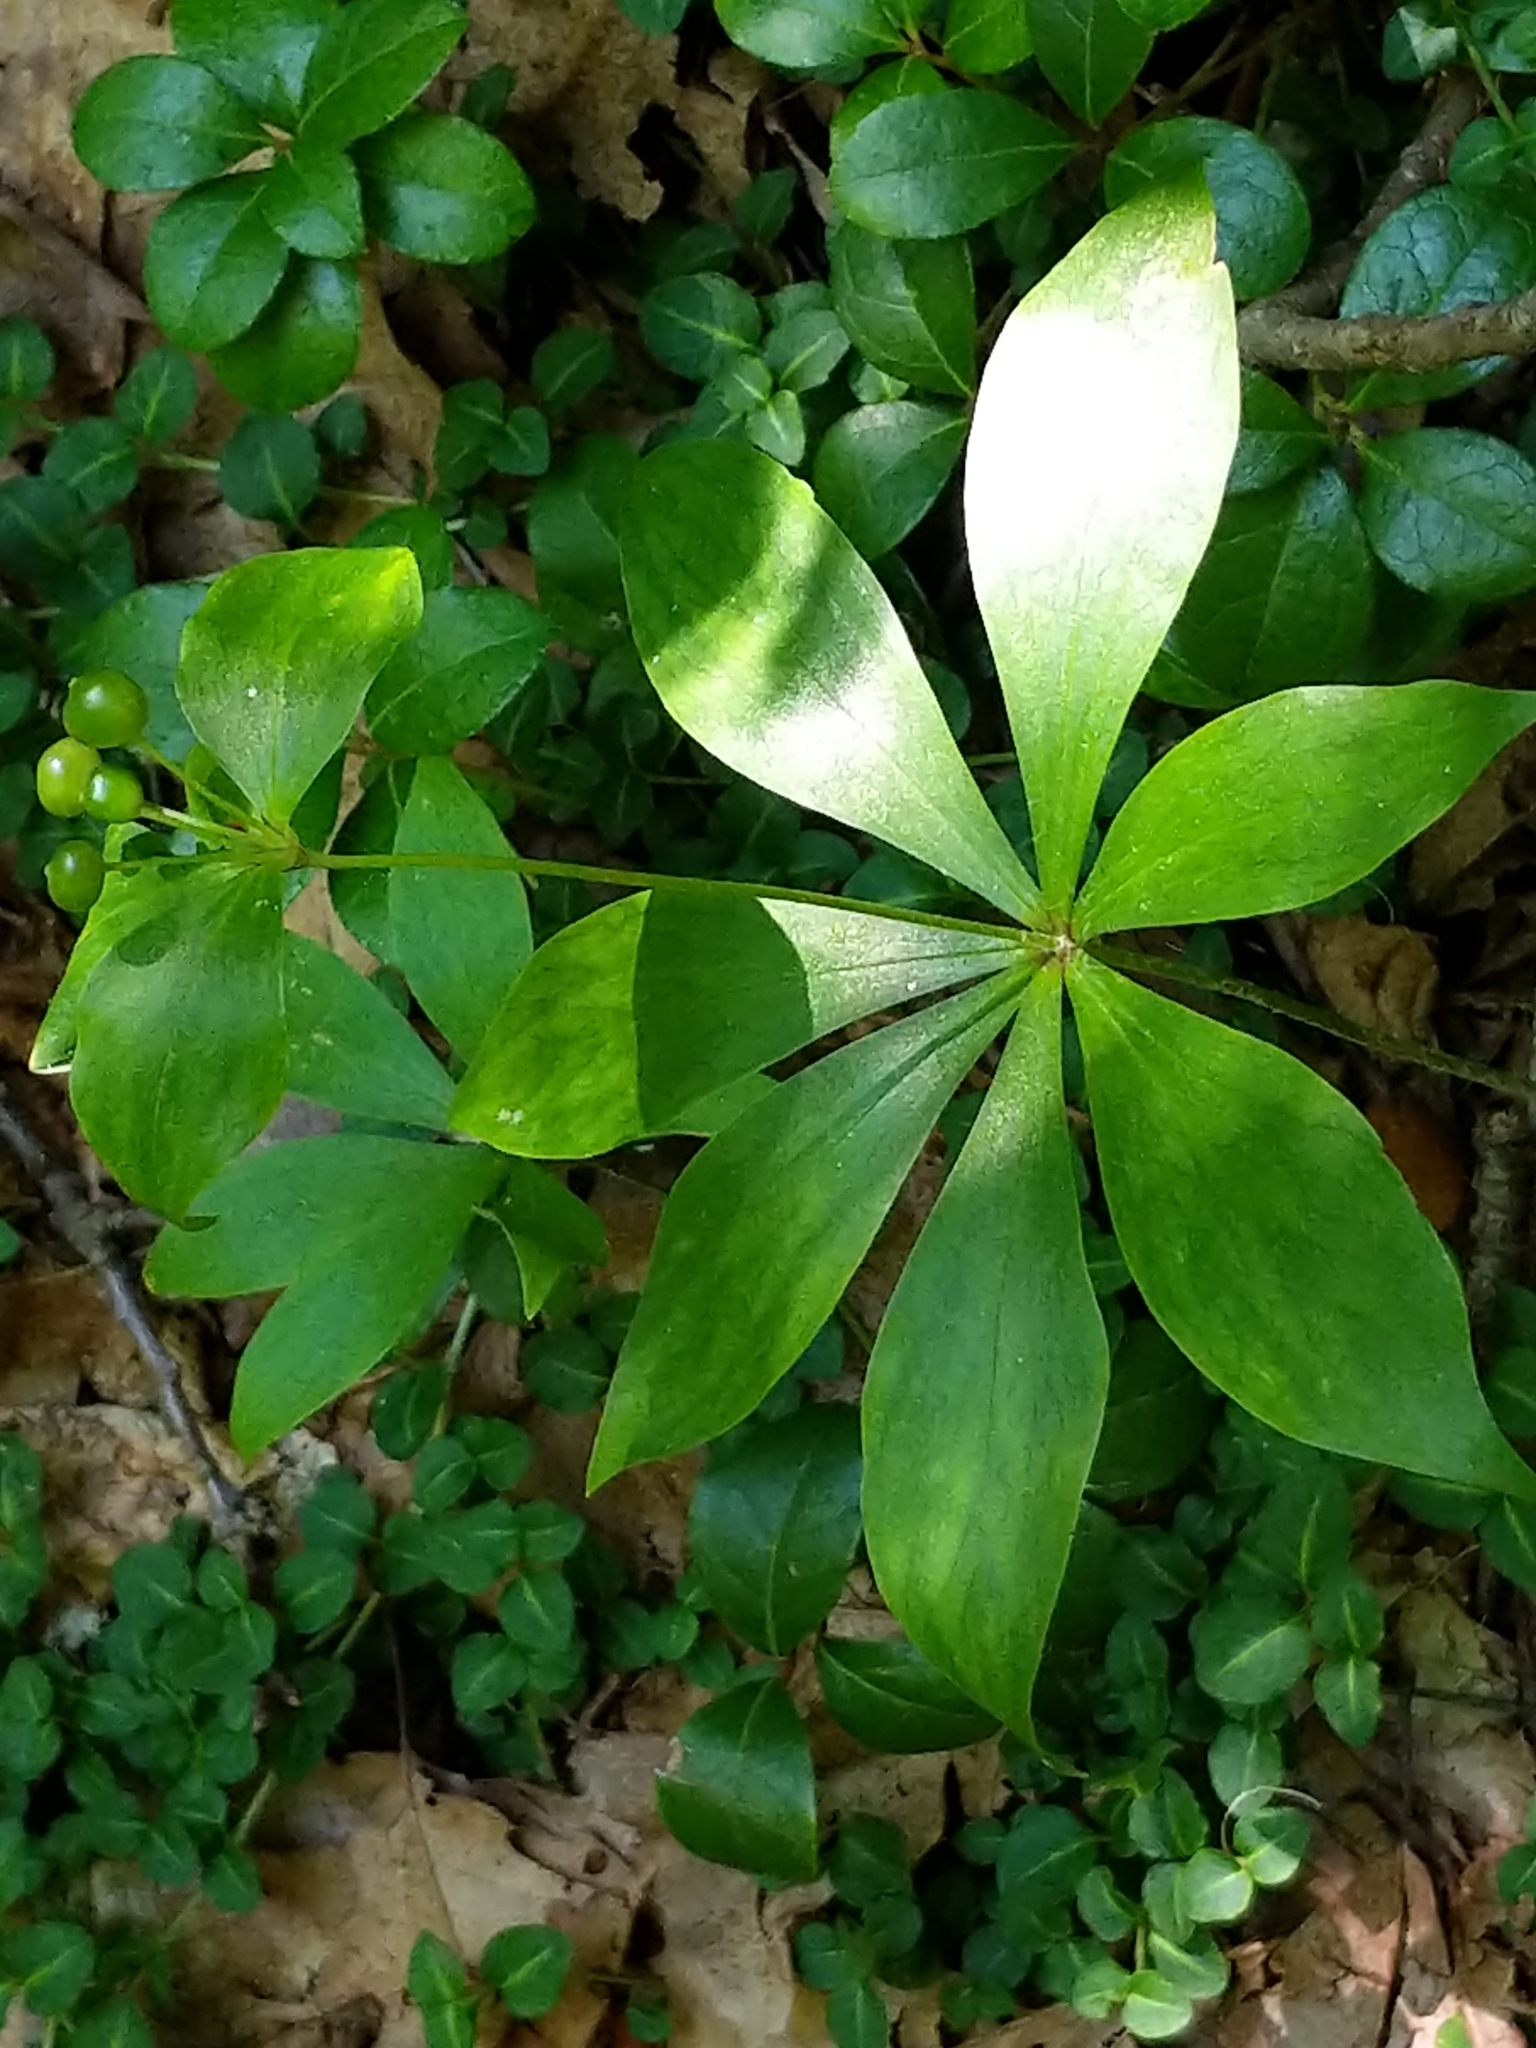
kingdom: Plantae
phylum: Tracheophyta
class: Liliopsida
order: Liliales
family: Liliaceae
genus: Medeola
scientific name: Medeola virginiana
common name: Indian cucumber-root
